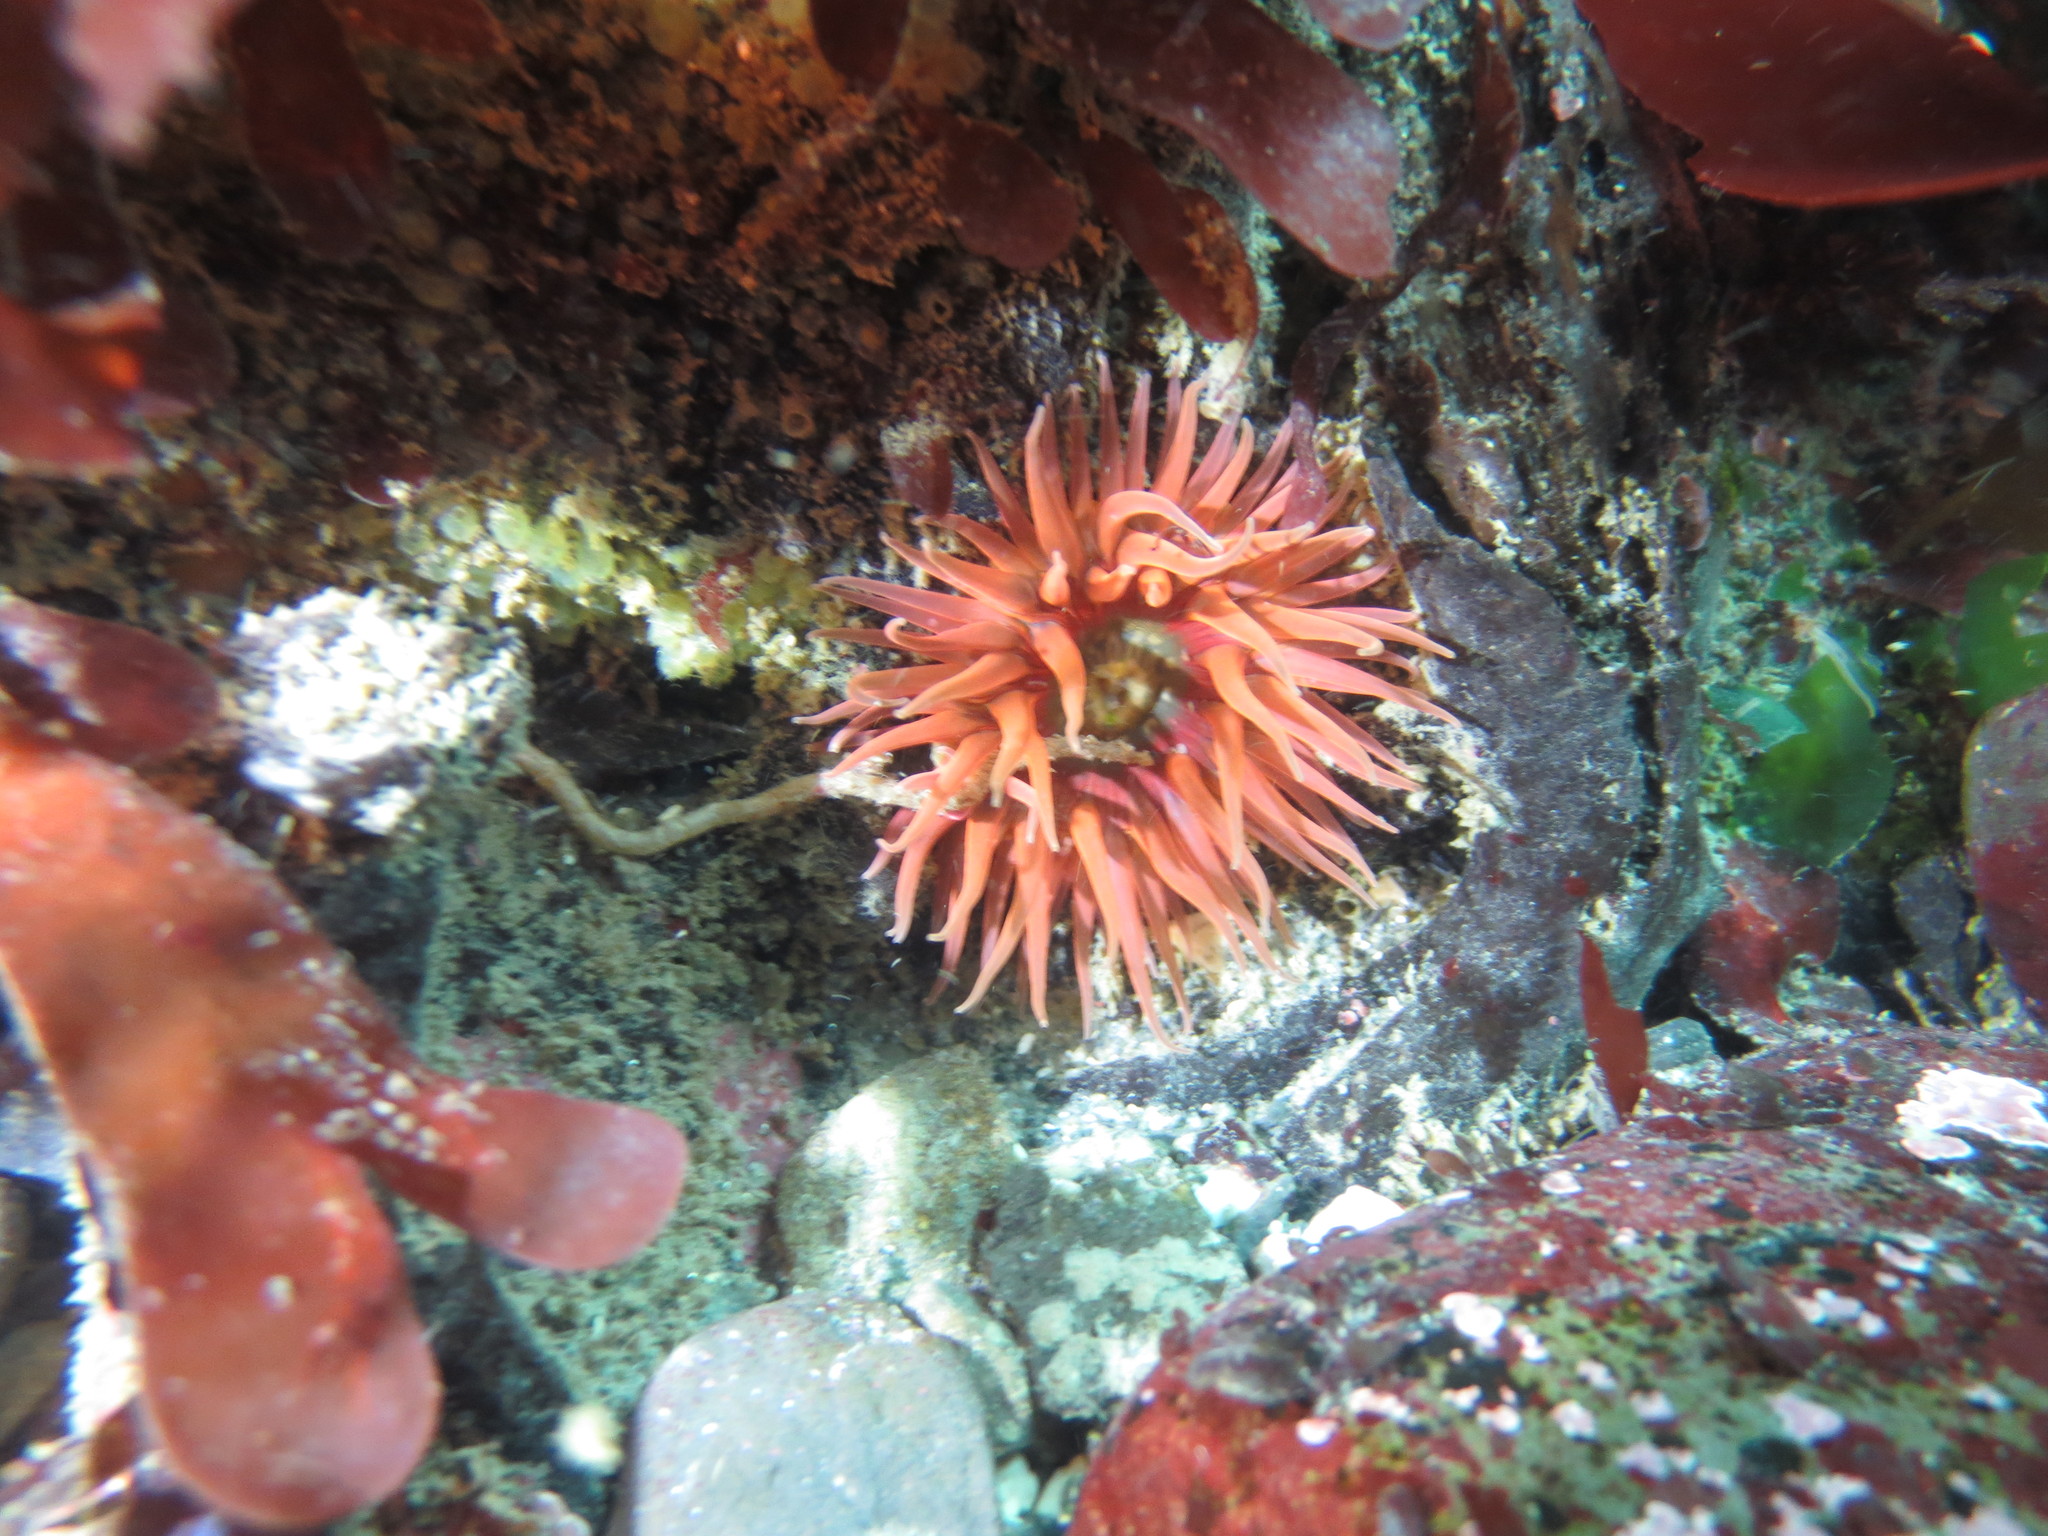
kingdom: Animalia
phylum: Cnidaria
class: Anthozoa
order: Actiniaria
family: Actiniidae
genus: Anthopleura
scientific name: Anthopleura artemisia
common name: Buried sea anemone
